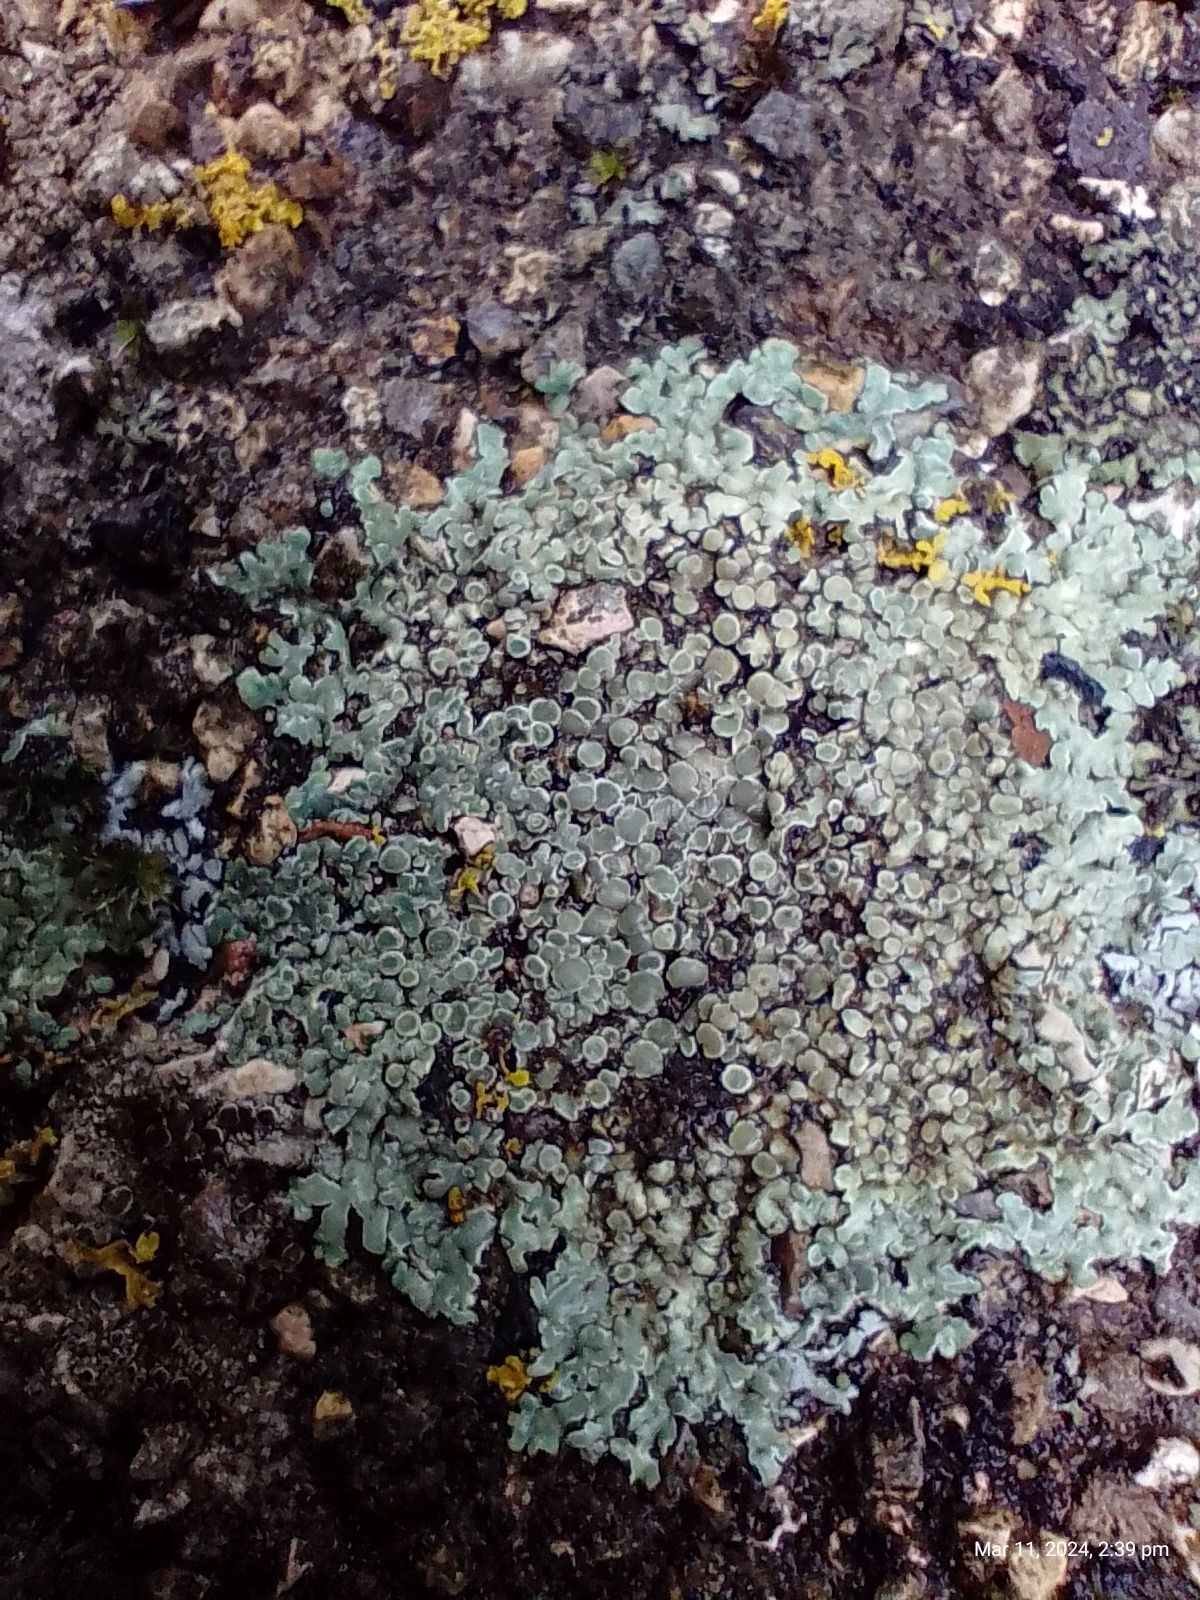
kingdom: Fungi
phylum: Ascomycota
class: Lecanoromycetes
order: Lecanorales
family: Lecanoraceae
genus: Protoparmeliopsis
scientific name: Protoparmeliopsis muralis
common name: Stonewall rim lichen
